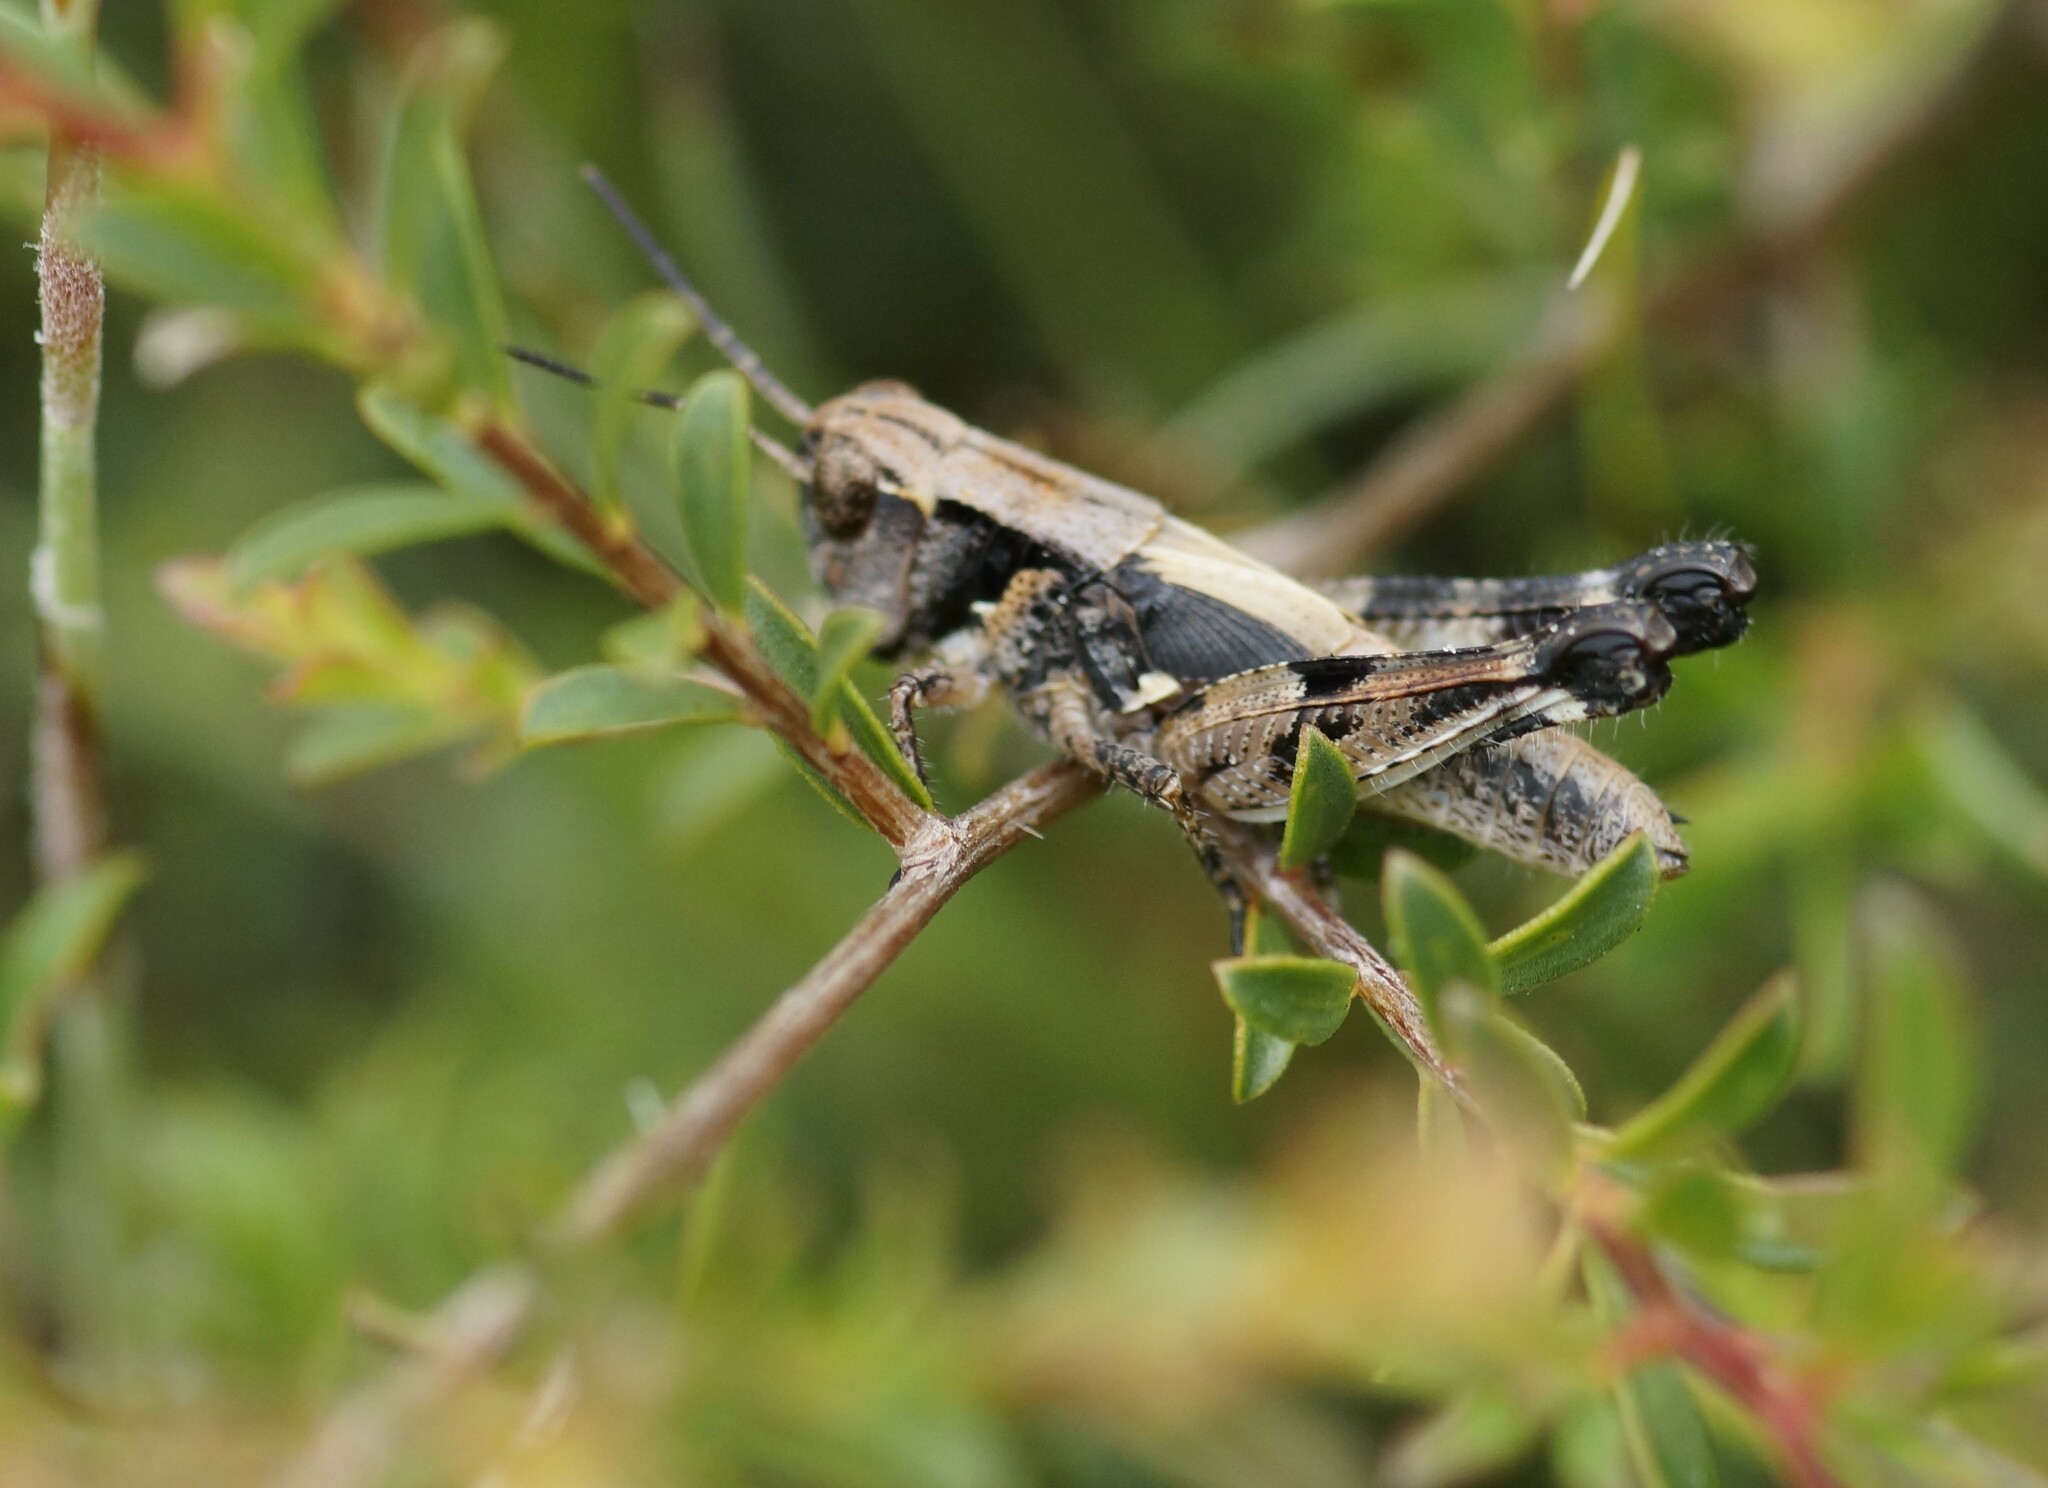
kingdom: Animalia
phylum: Arthropoda
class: Insecta
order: Orthoptera
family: Acrididae
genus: Brachyexarna
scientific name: Brachyexarna lobipennis
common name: Stripe-winged meadow grasshopper
